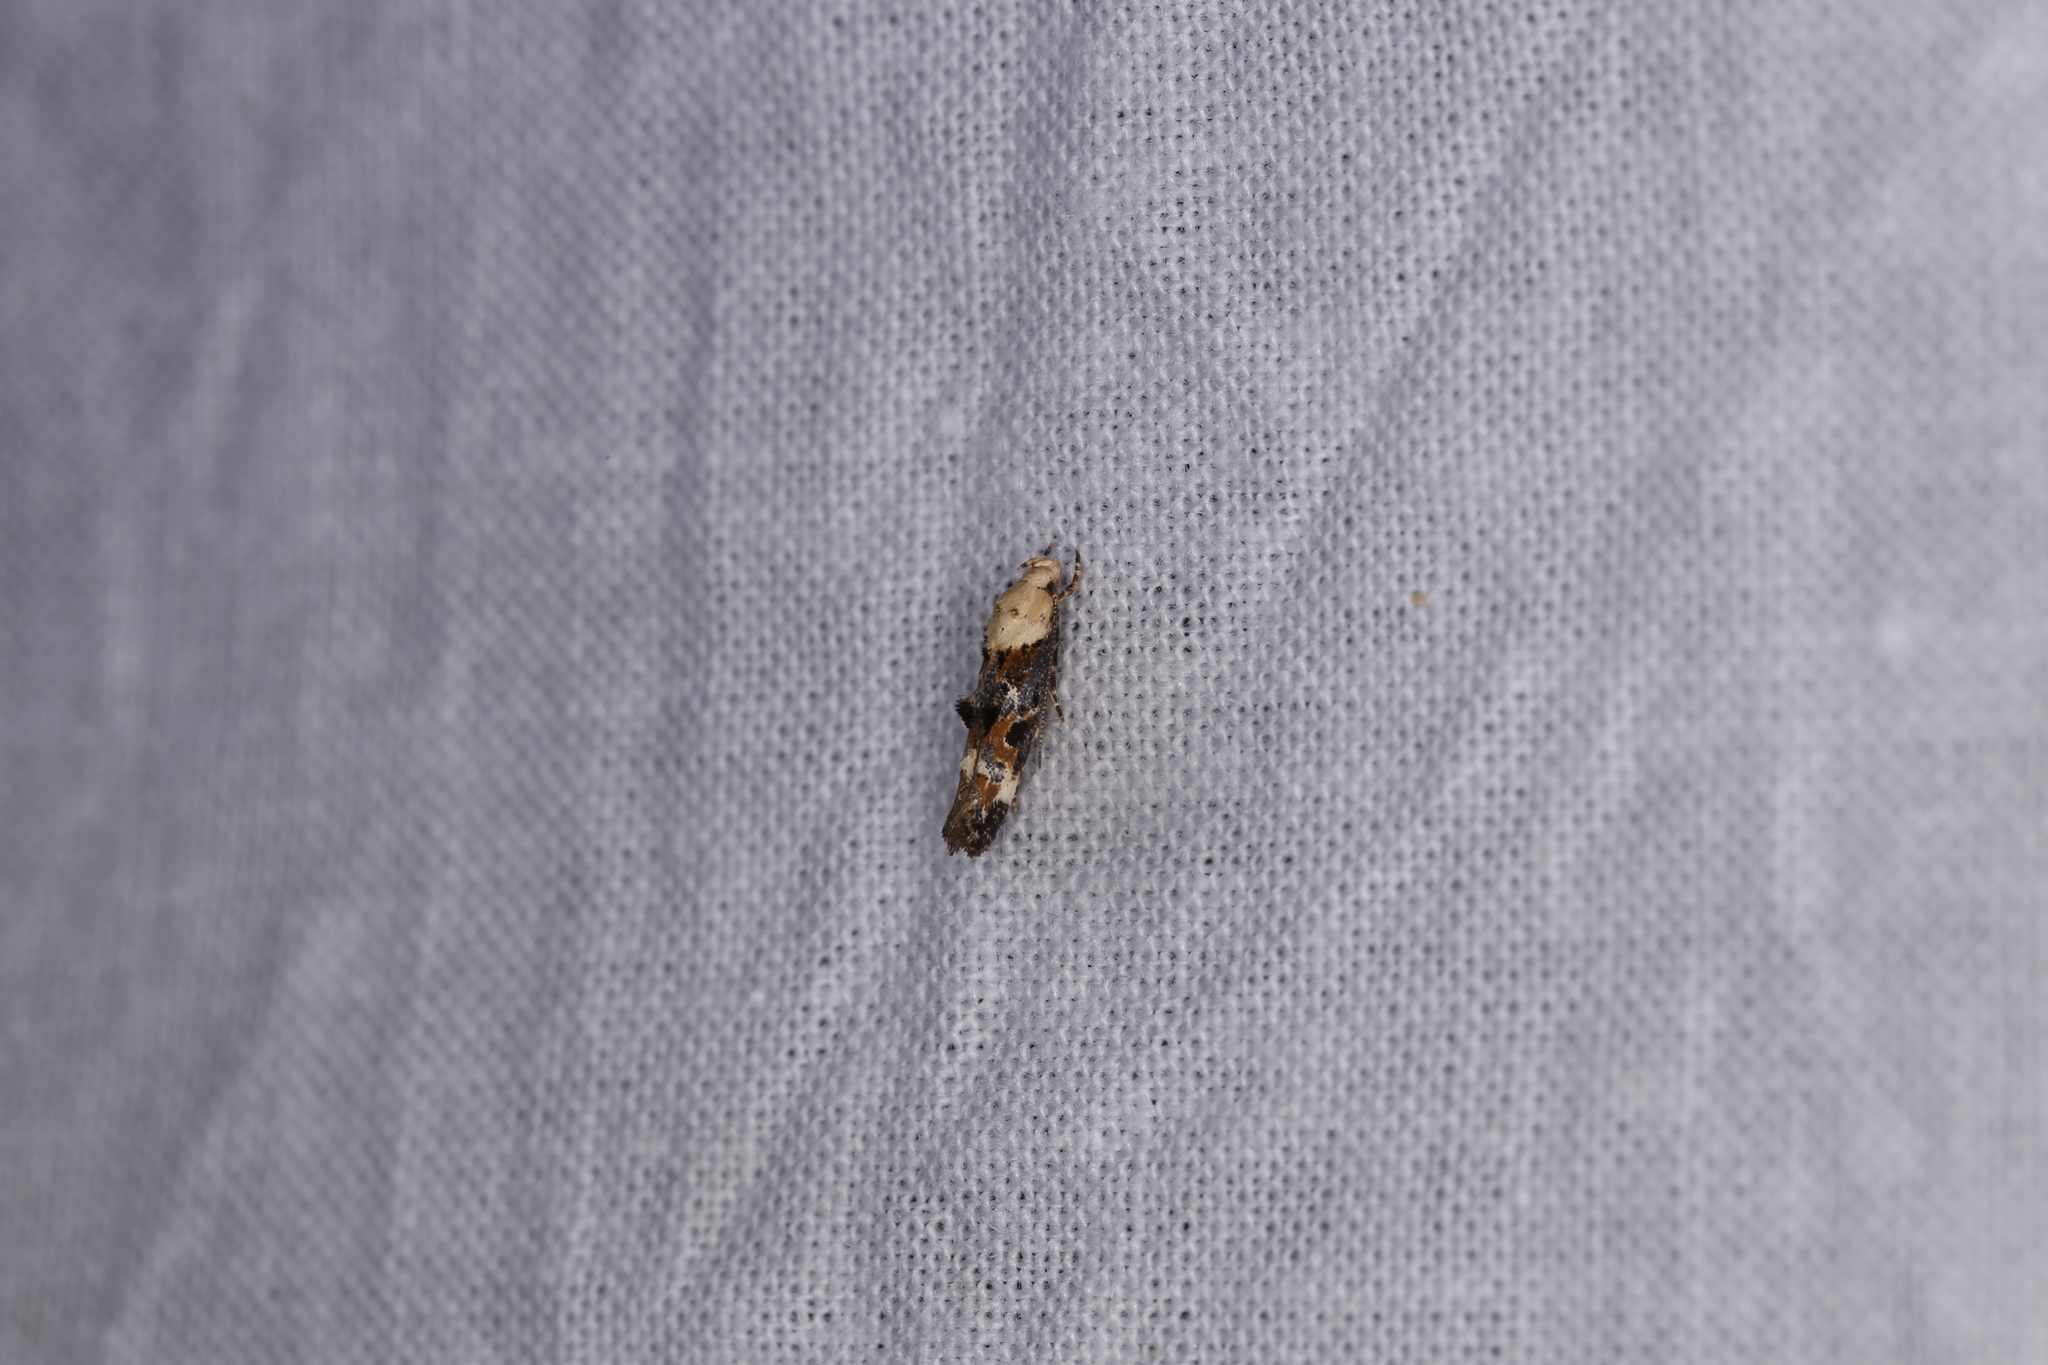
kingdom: Animalia
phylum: Arthropoda
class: Insecta
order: Lepidoptera
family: Momphidae
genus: Mompha
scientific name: Mompha propinquella
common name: Marbled cosmet
